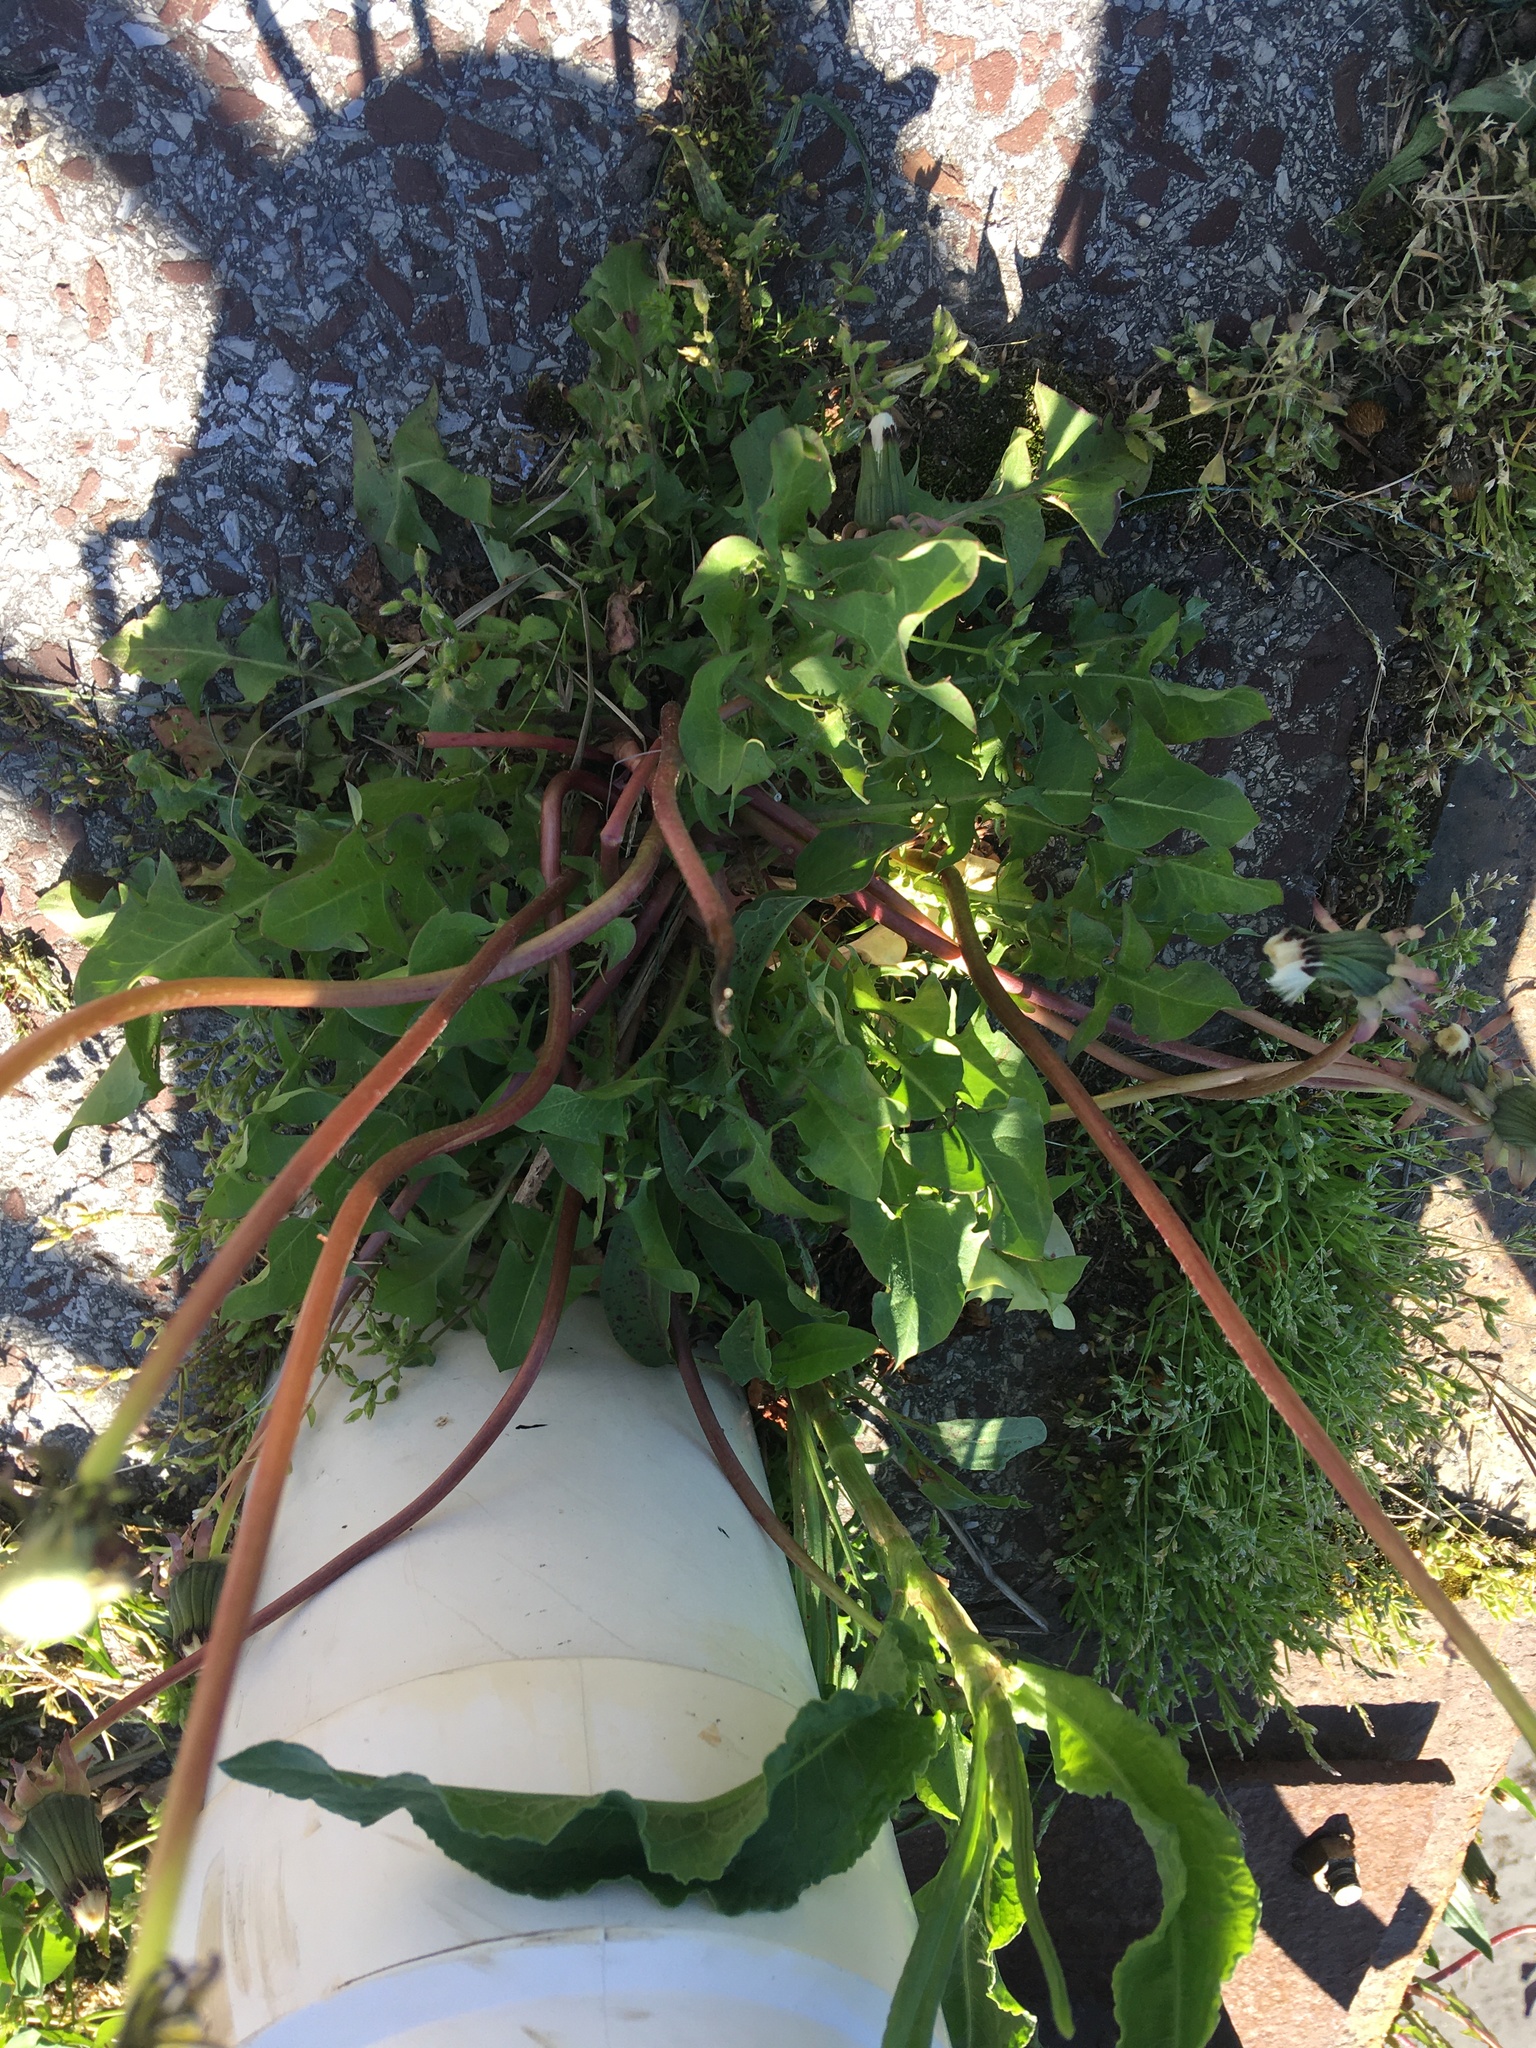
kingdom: Plantae
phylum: Tracheophyta
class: Magnoliopsida
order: Asterales
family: Asteraceae
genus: Taraxacum
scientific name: Taraxacum
